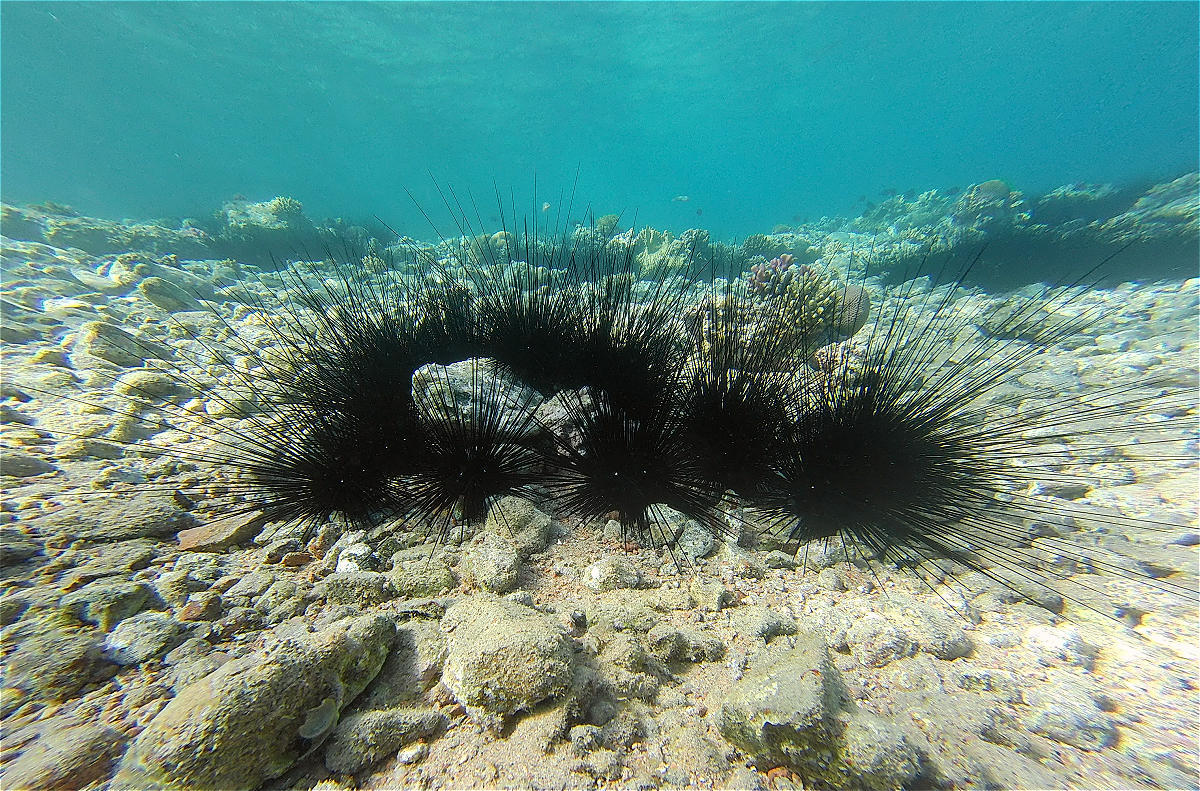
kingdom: Animalia
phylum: Echinodermata
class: Echinoidea
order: Diadematoida
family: Diadematidae
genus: Diadema
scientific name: Diadema setosum
